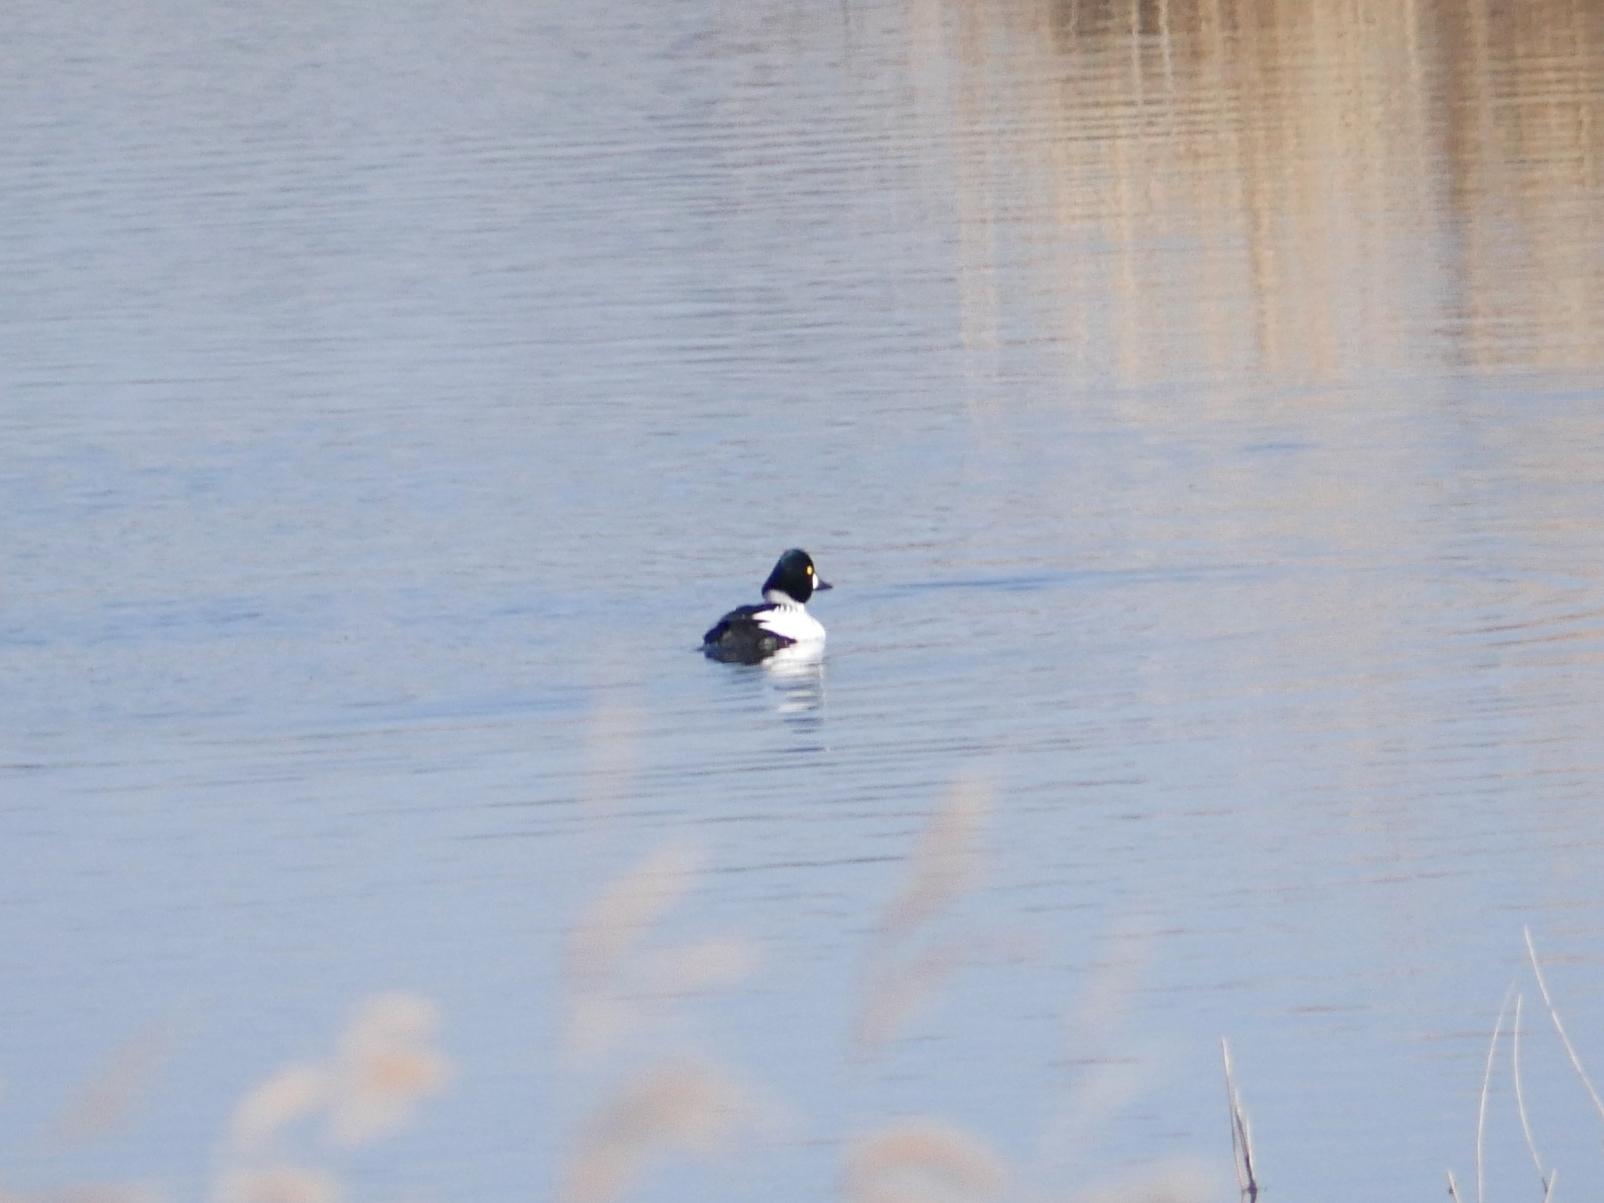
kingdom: Animalia
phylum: Chordata
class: Aves
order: Anseriformes
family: Anatidae
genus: Bucephala
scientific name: Bucephala clangula
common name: Common goldeneye
